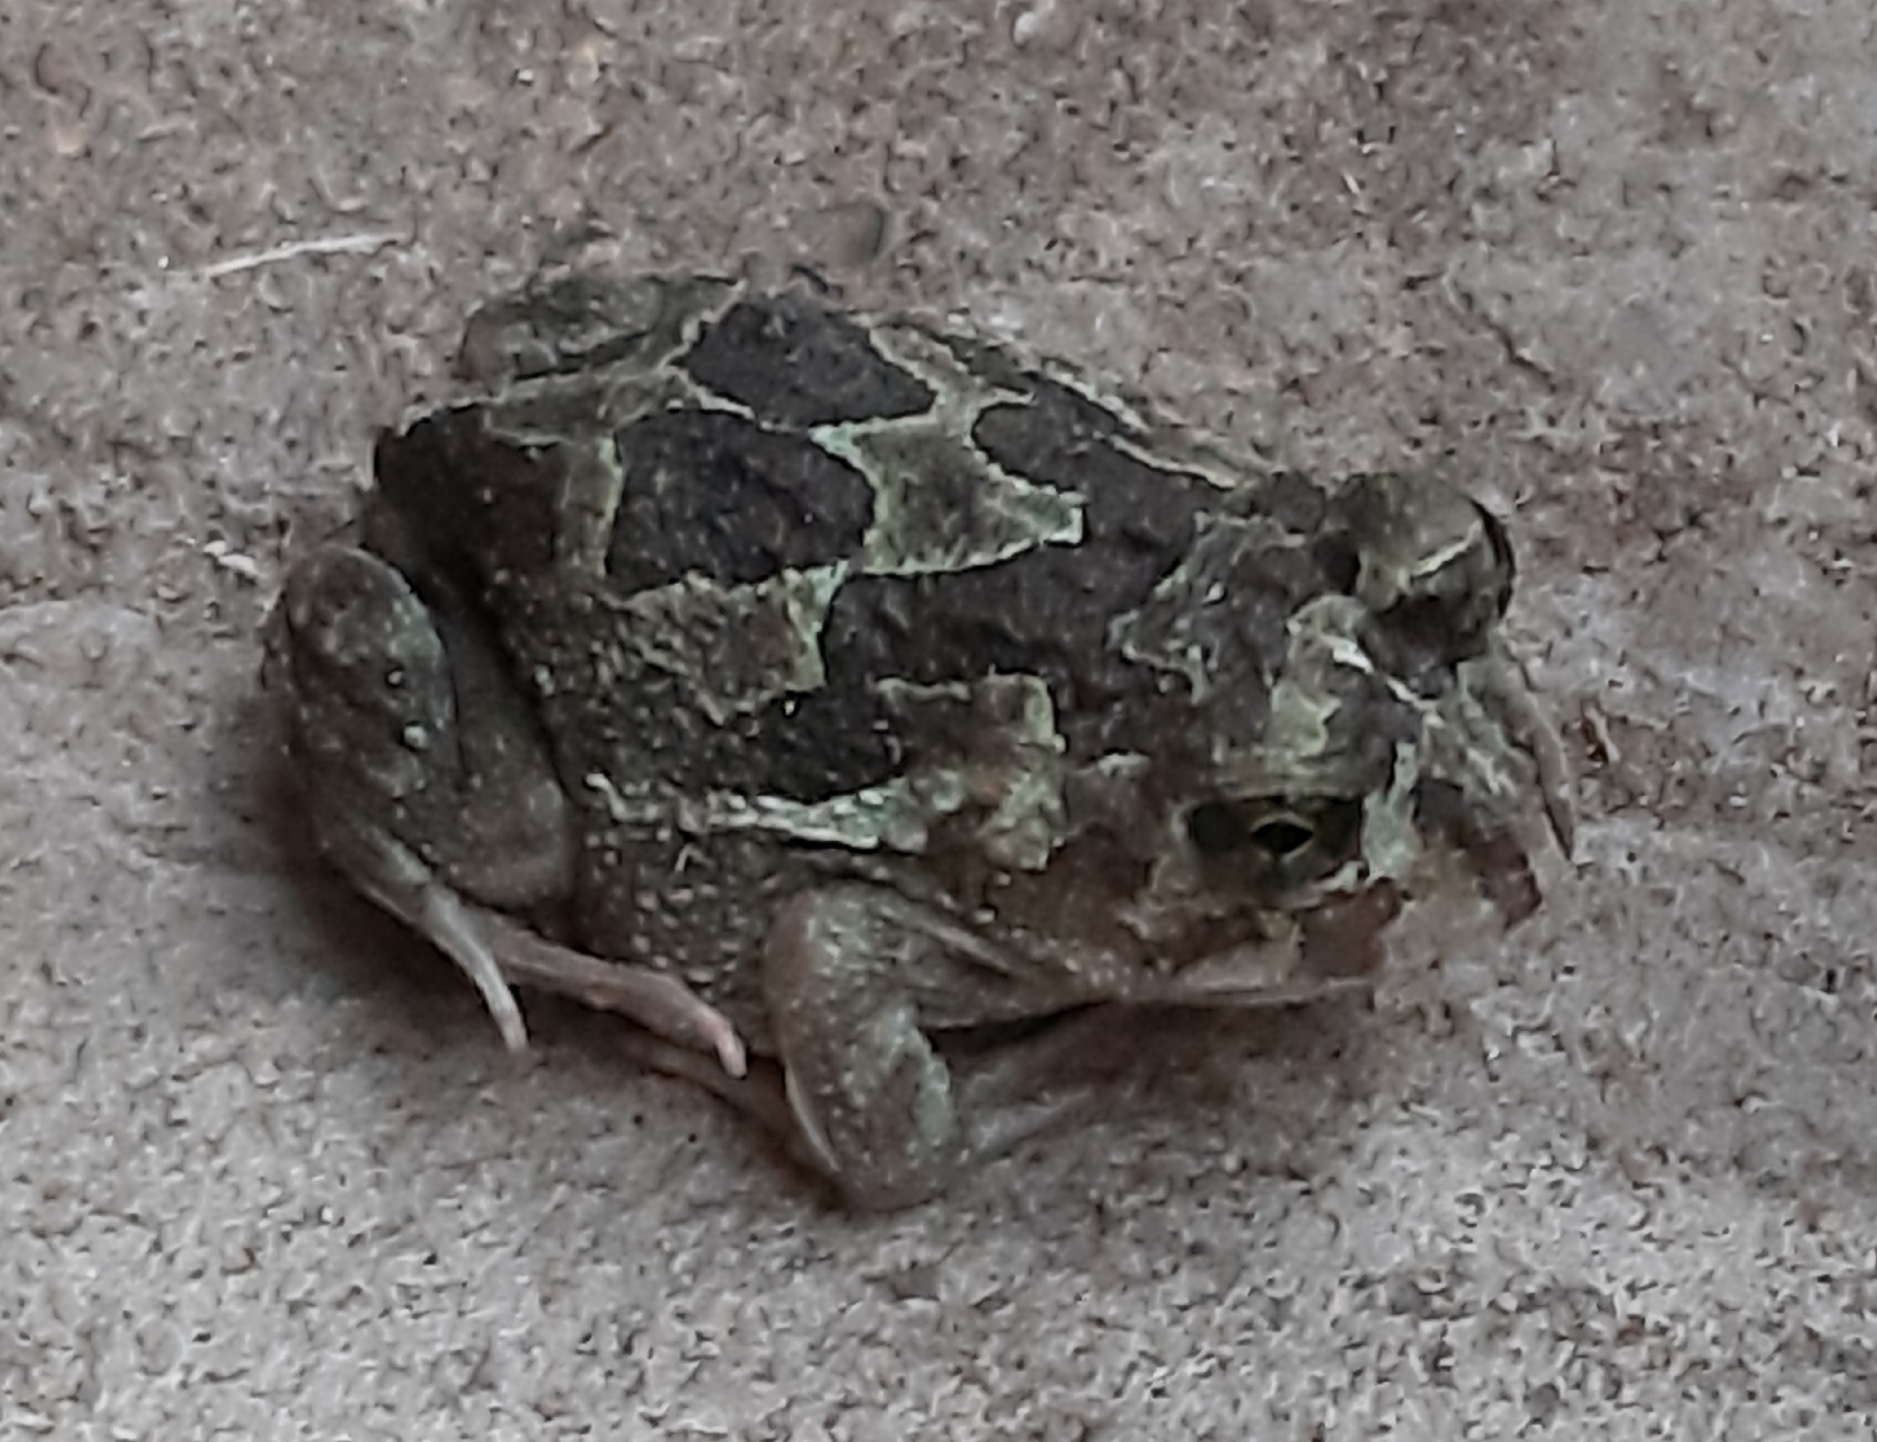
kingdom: Animalia
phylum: Chordata
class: Amphibia
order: Anura
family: Odontophrynidae
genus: Odontophrynus
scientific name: Odontophrynus
